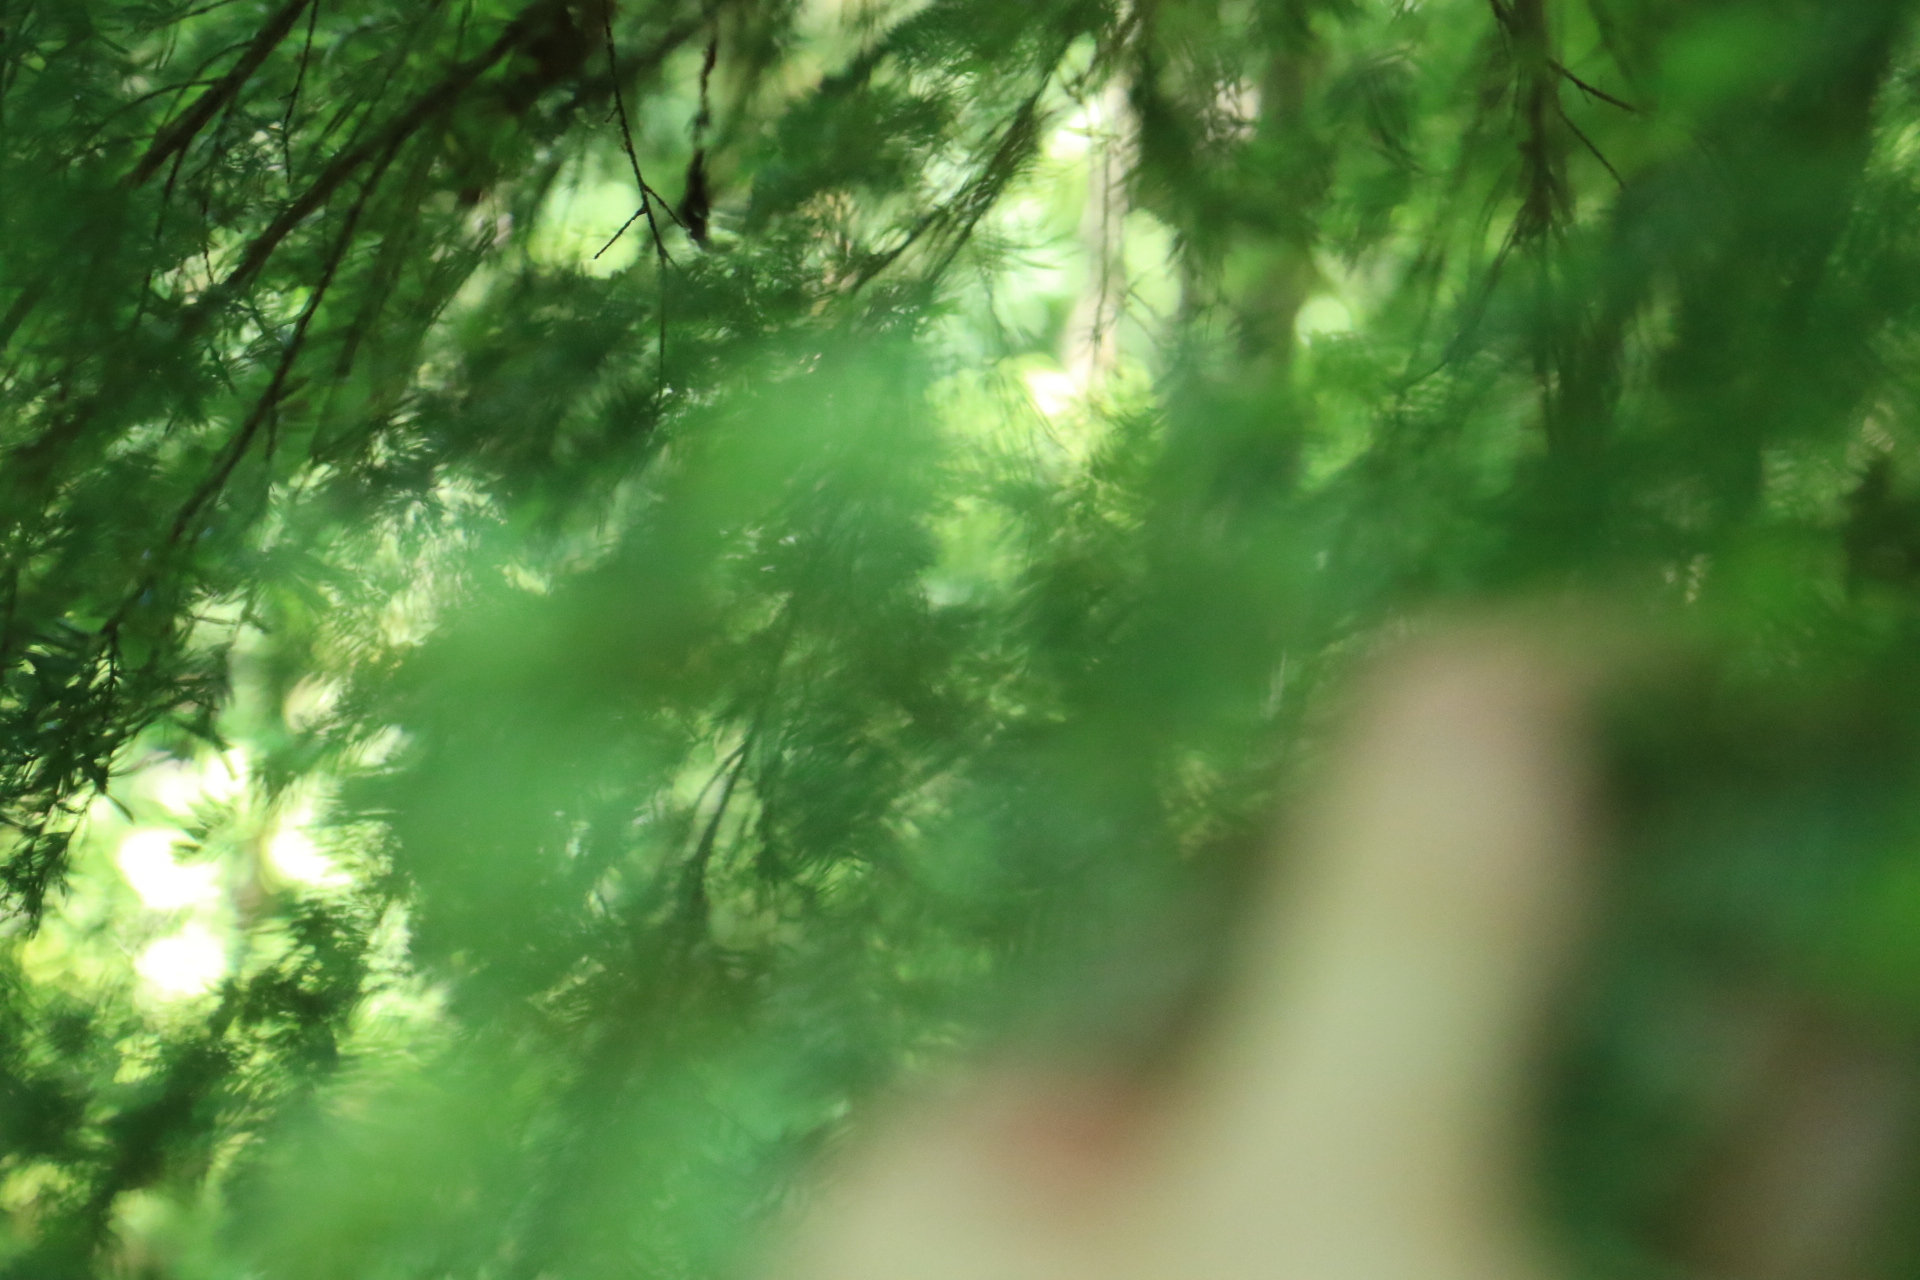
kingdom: Plantae
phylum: Tracheophyta
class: Pinopsida
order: Pinales
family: Pinaceae
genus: Tsuga
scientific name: Tsuga heterophylla
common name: Western hemlock
